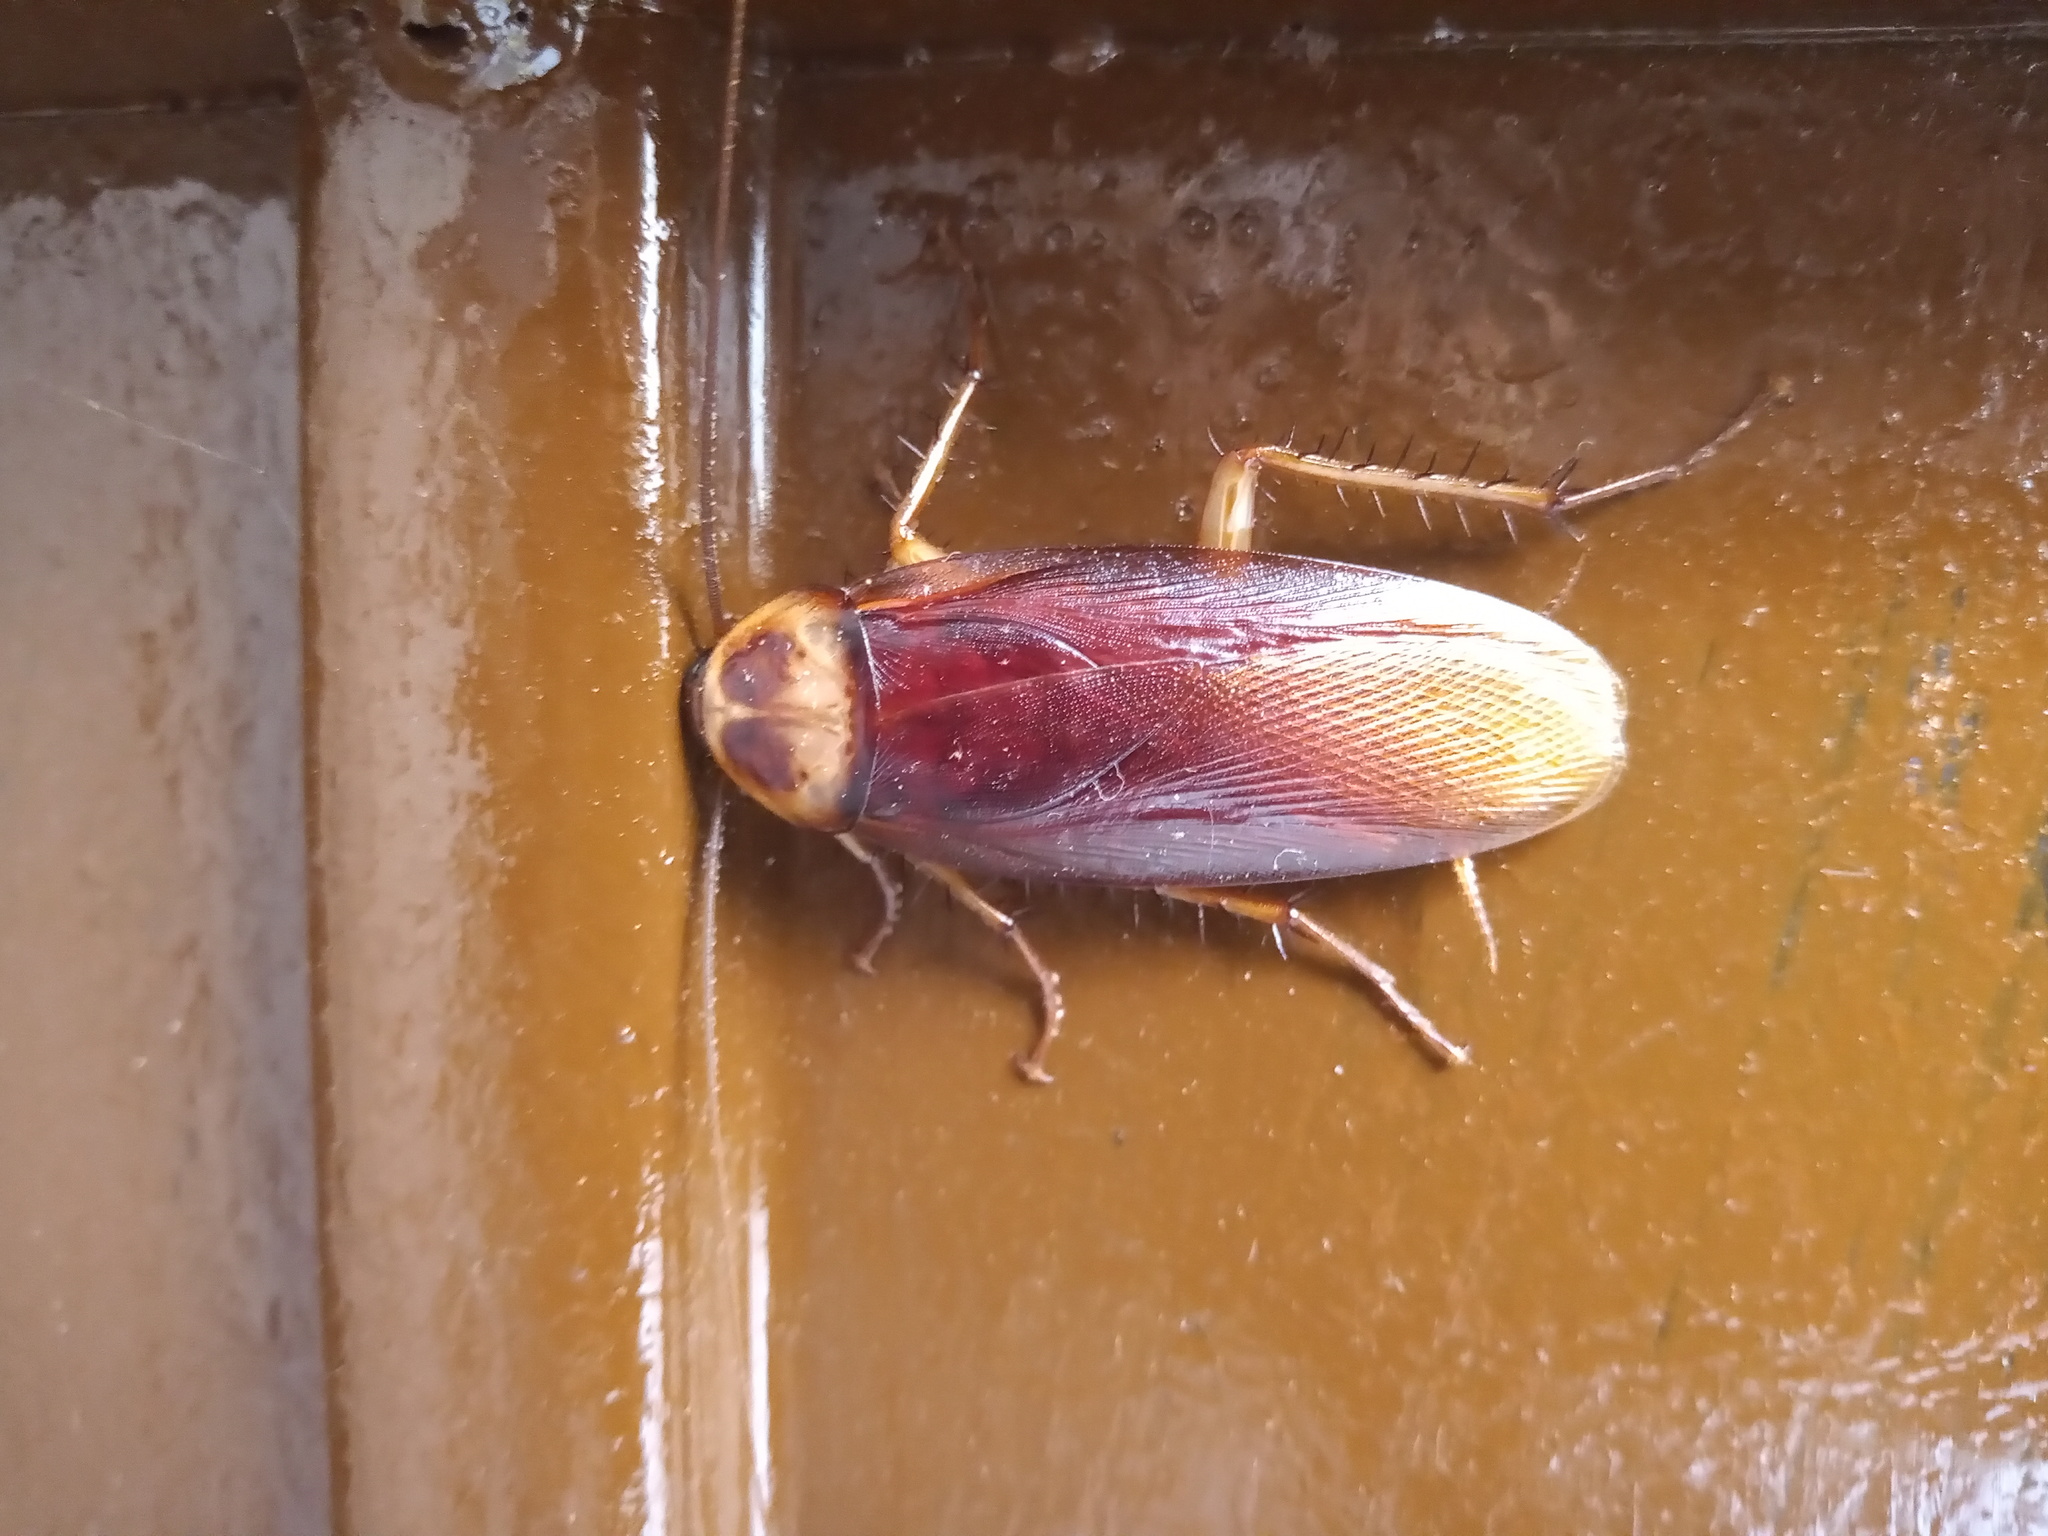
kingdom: Animalia
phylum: Arthropoda
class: Insecta
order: Blattodea
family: Blattidae
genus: Periplaneta
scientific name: Periplaneta americana
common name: American cockroach
